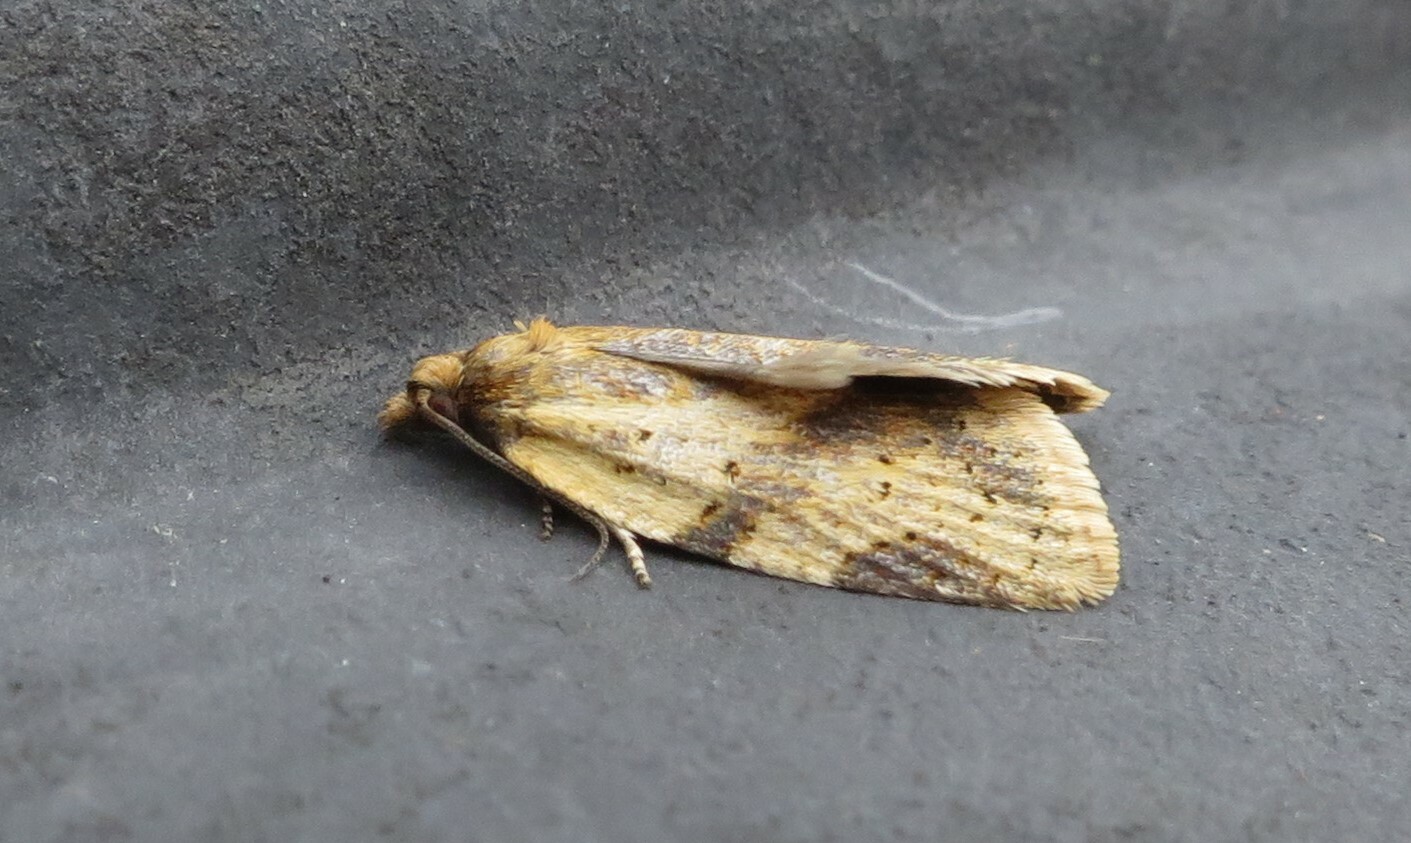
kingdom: Animalia
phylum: Arthropoda
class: Insecta
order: Lepidoptera
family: Tortricidae
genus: Clepsis
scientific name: Clepsis
